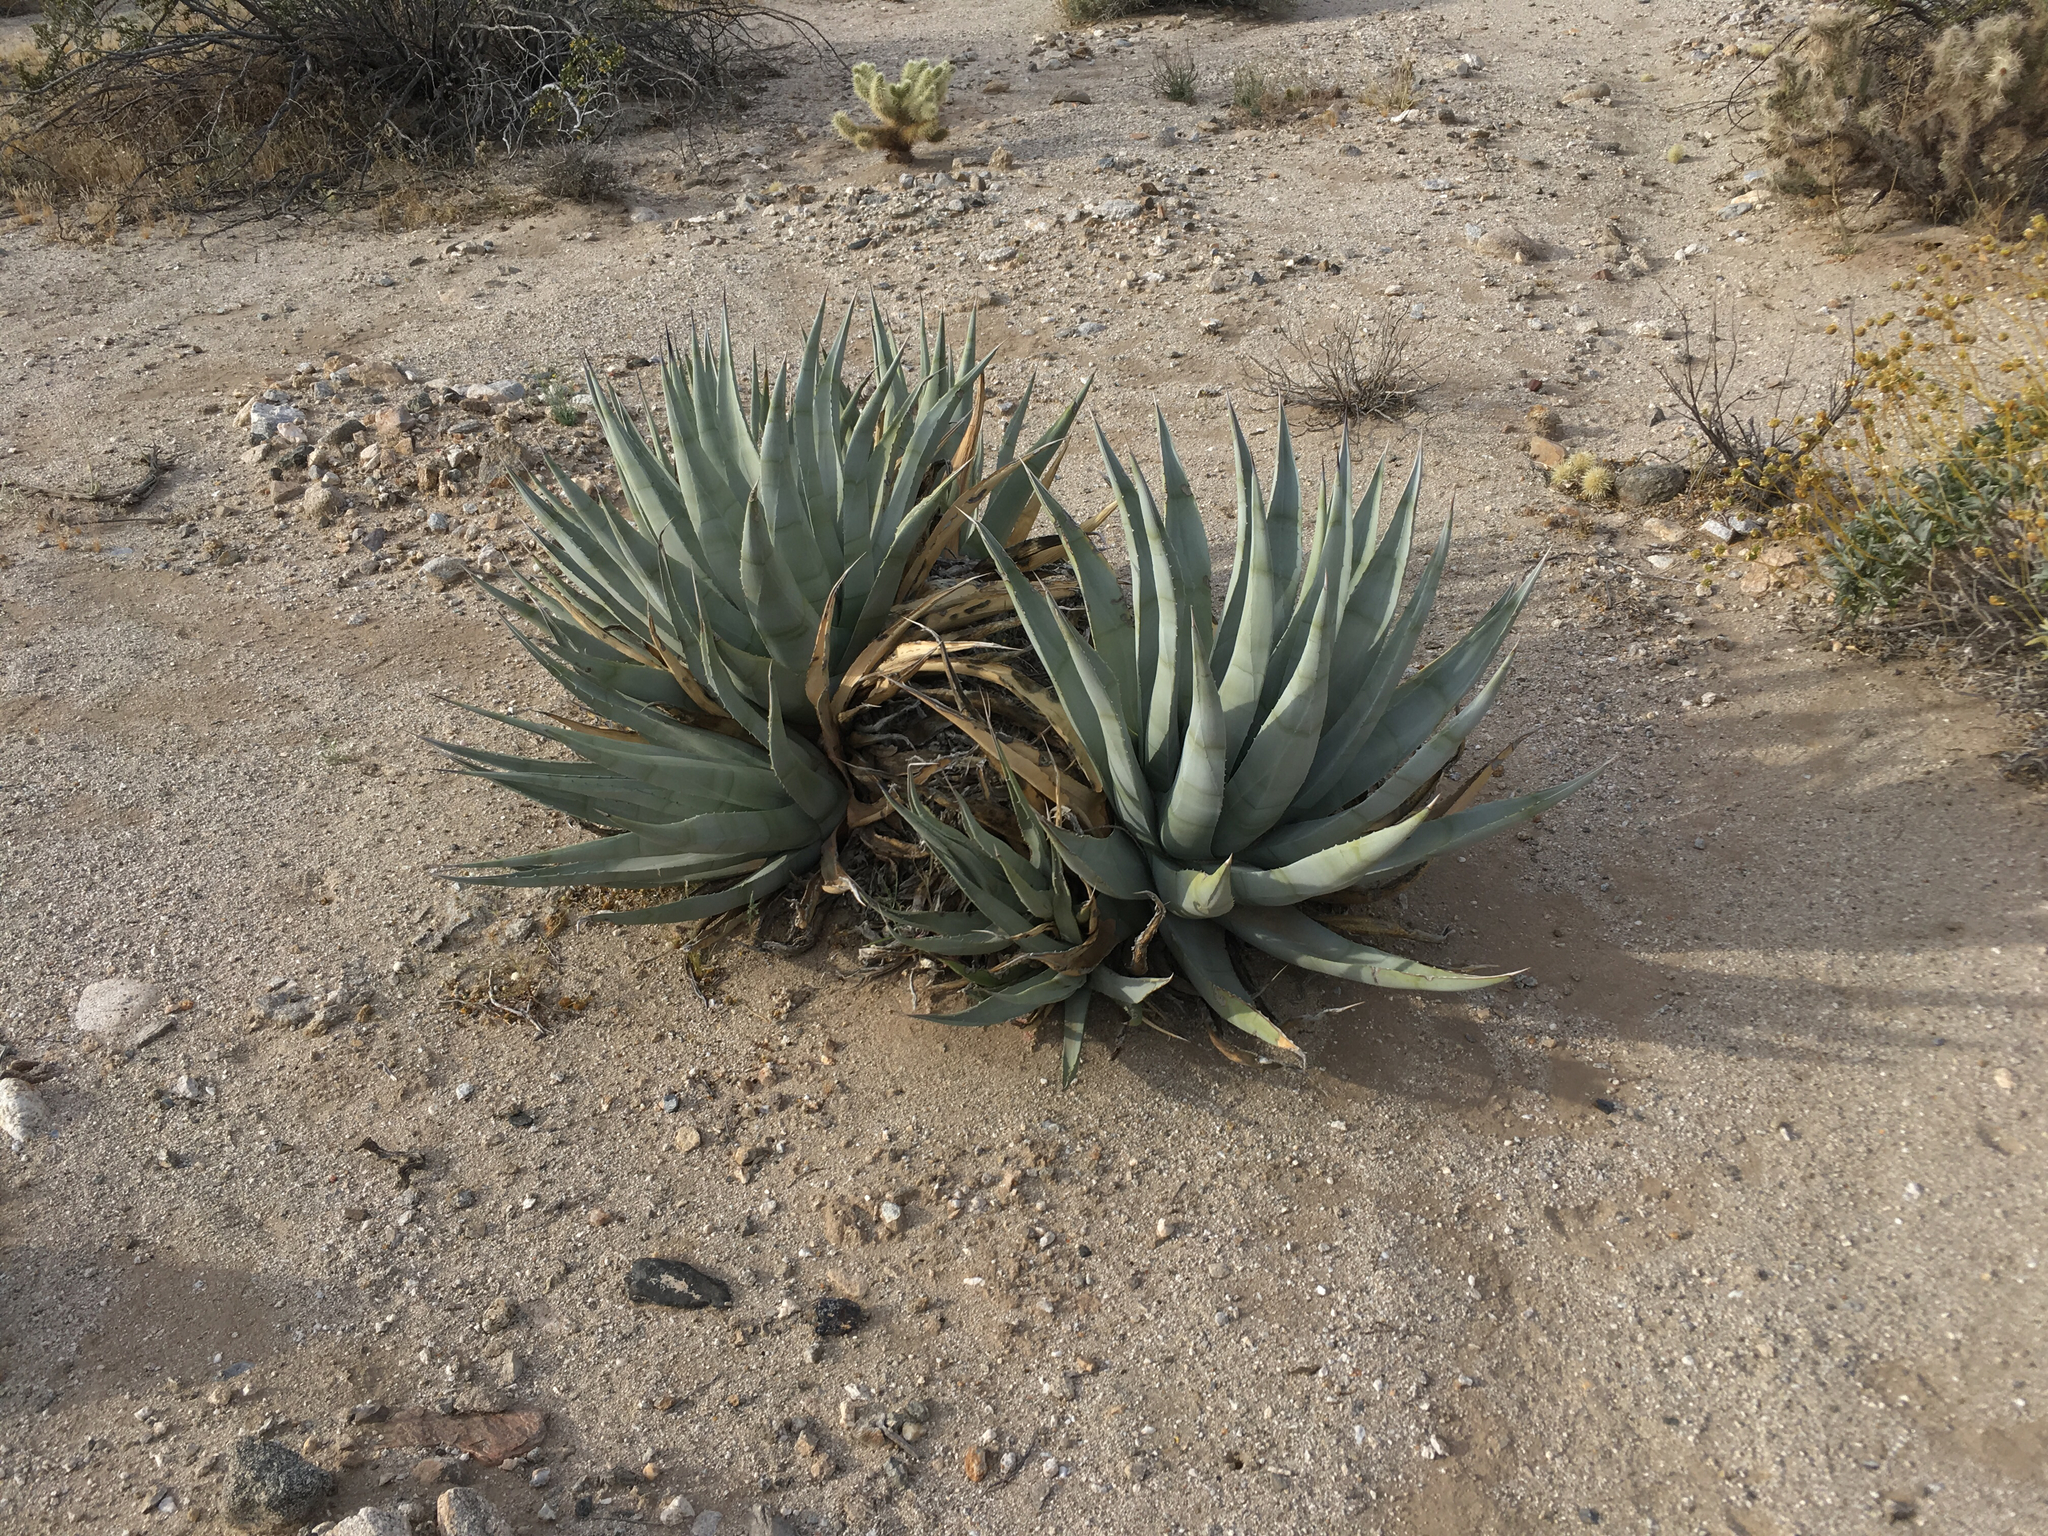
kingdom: Plantae
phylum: Tracheophyta
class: Liliopsida
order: Asparagales
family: Asparagaceae
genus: Agave
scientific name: Agave deserti
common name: Desert agave
